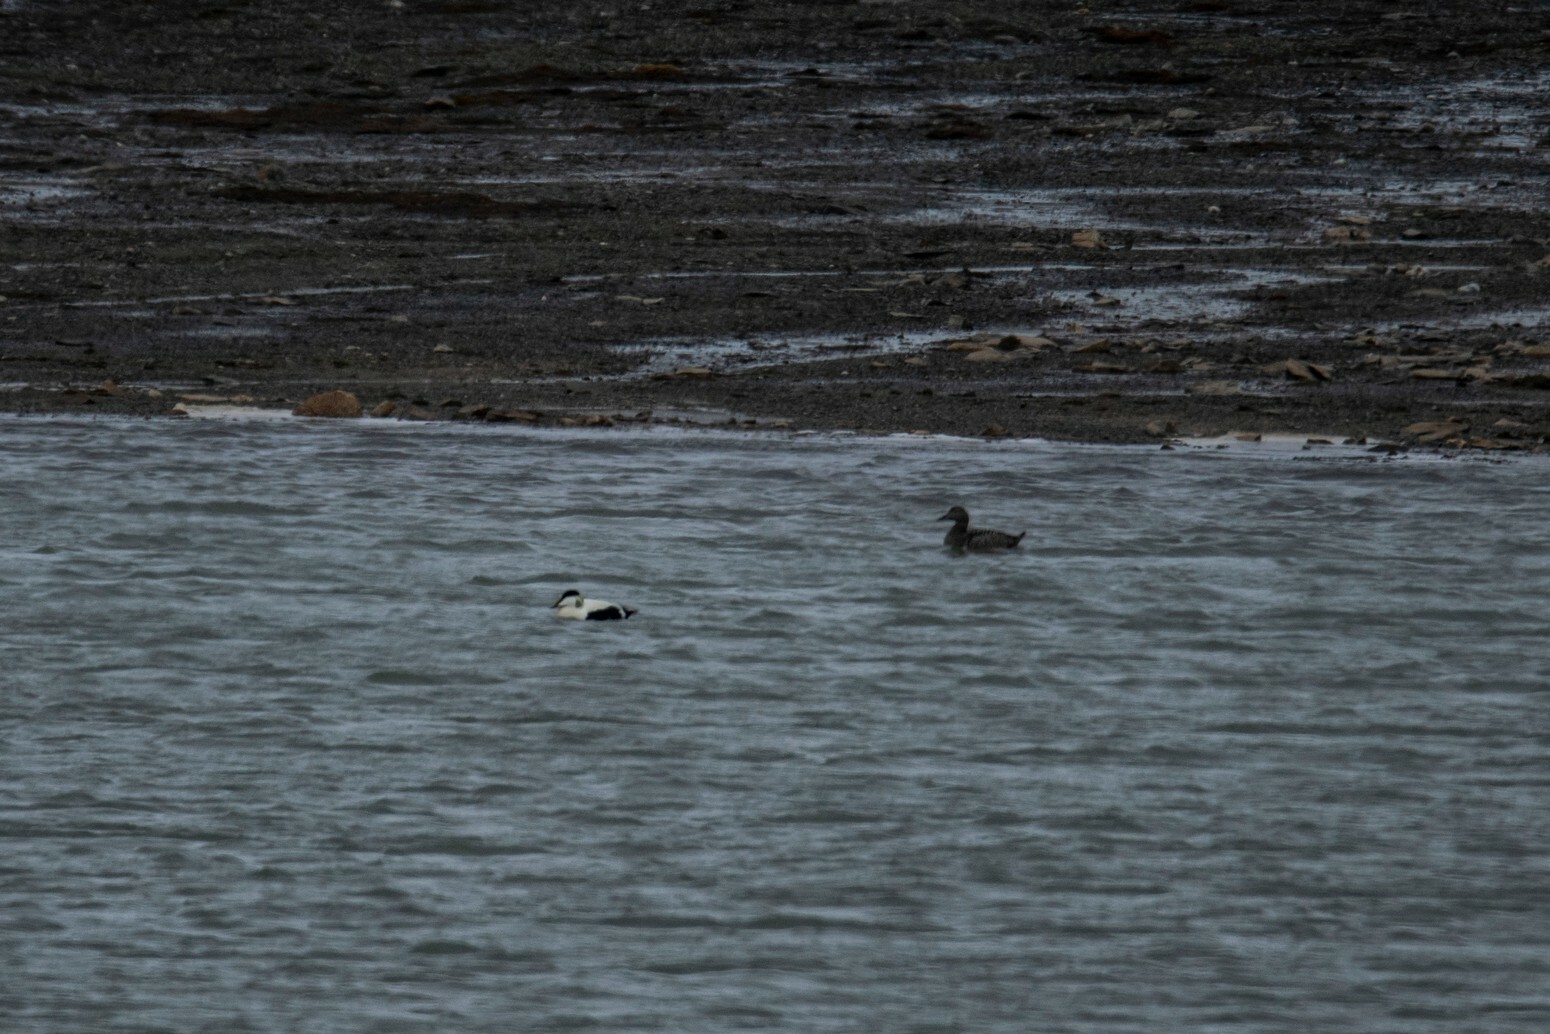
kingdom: Animalia
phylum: Chordata
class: Aves
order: Anseriformes
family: Anatidae
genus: Somateria
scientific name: Somateria mollissima
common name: Common eider
